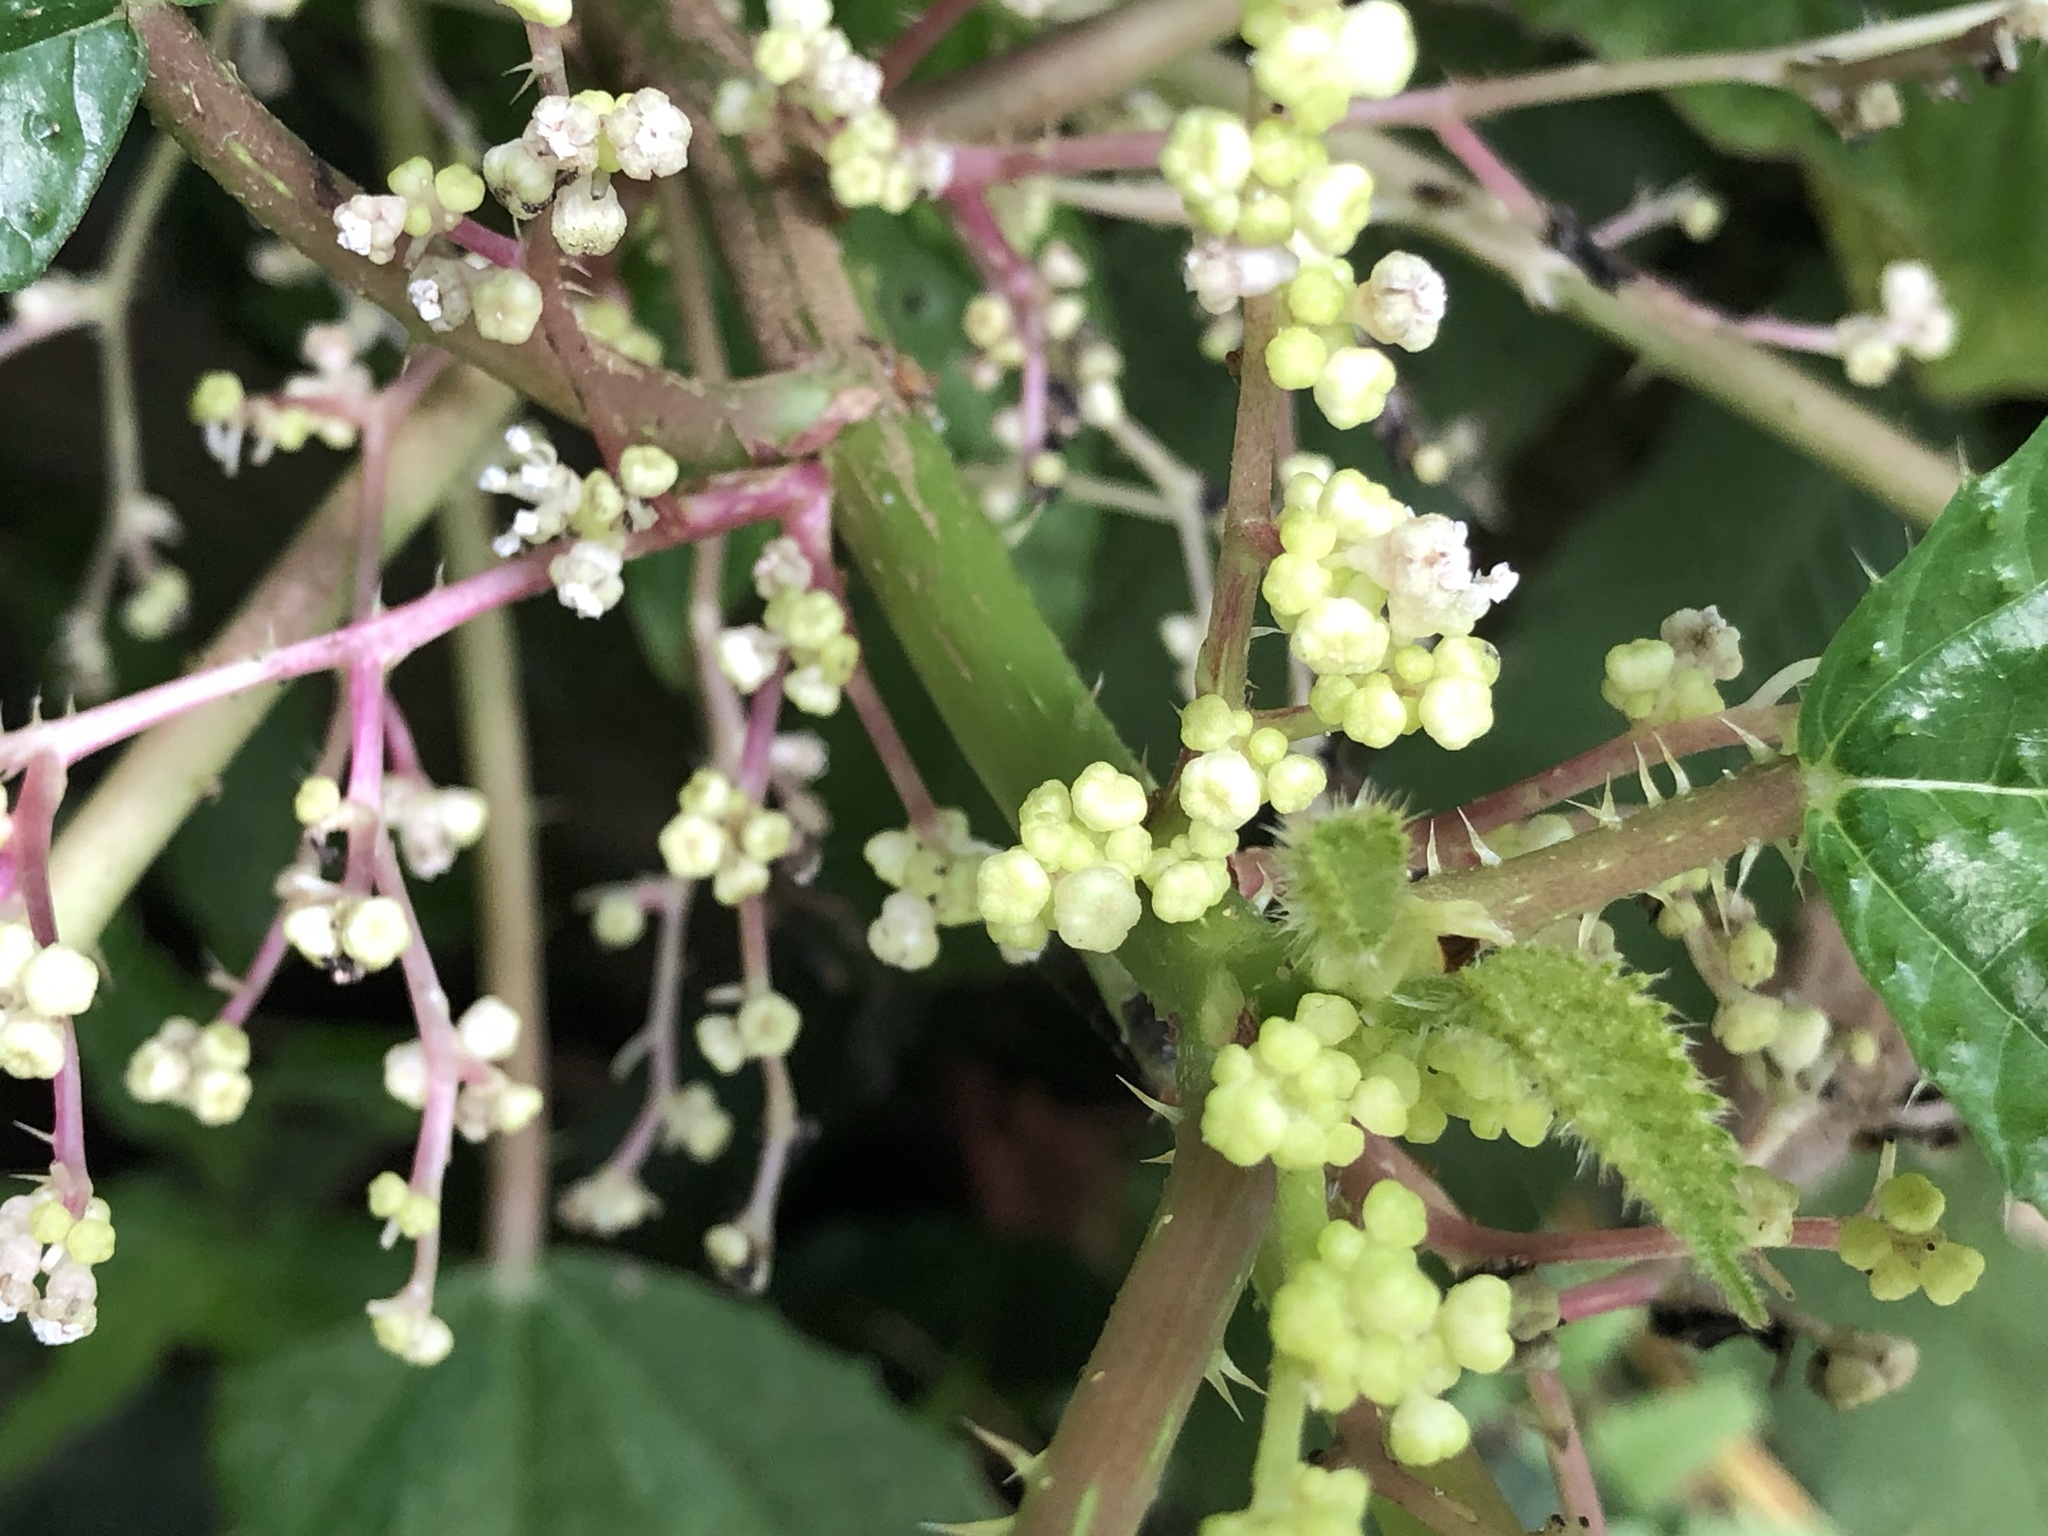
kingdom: Plantae
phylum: Tracheophyta
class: Magnoliopsida
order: Rosales
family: Urticaceae
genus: Urera
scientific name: Urera baccifera
